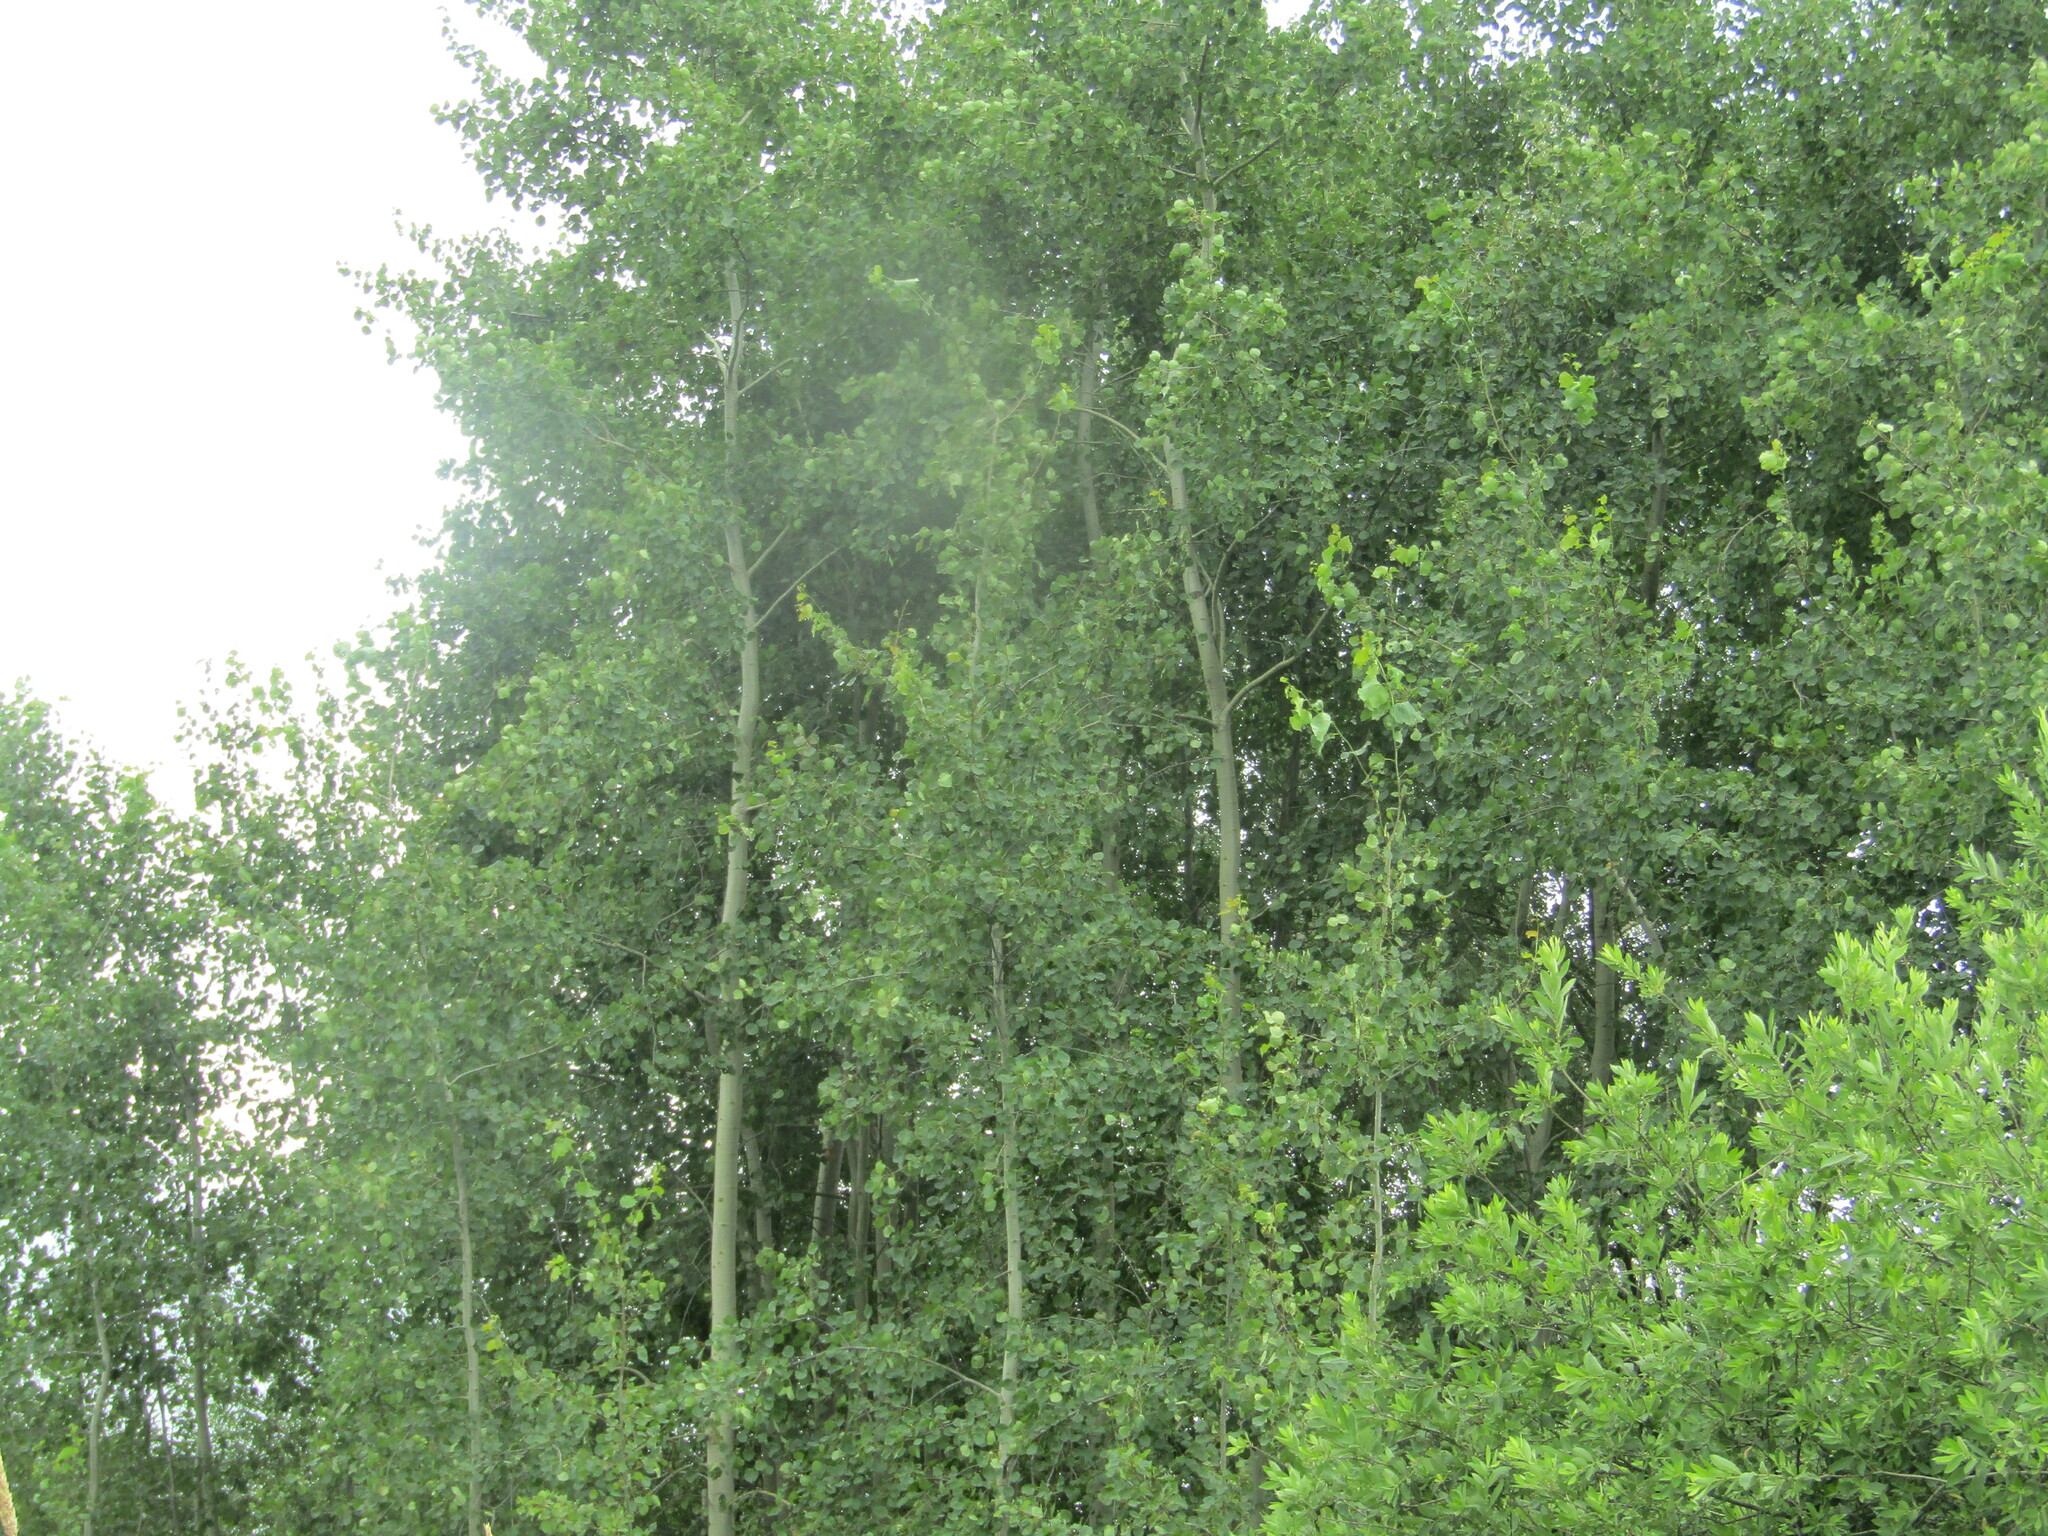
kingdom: Plantae
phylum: Tracheophyta
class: Magnoliopsida
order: Malpighiales
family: Salicaceae
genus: Populus
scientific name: Populus tremula
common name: European aspen
